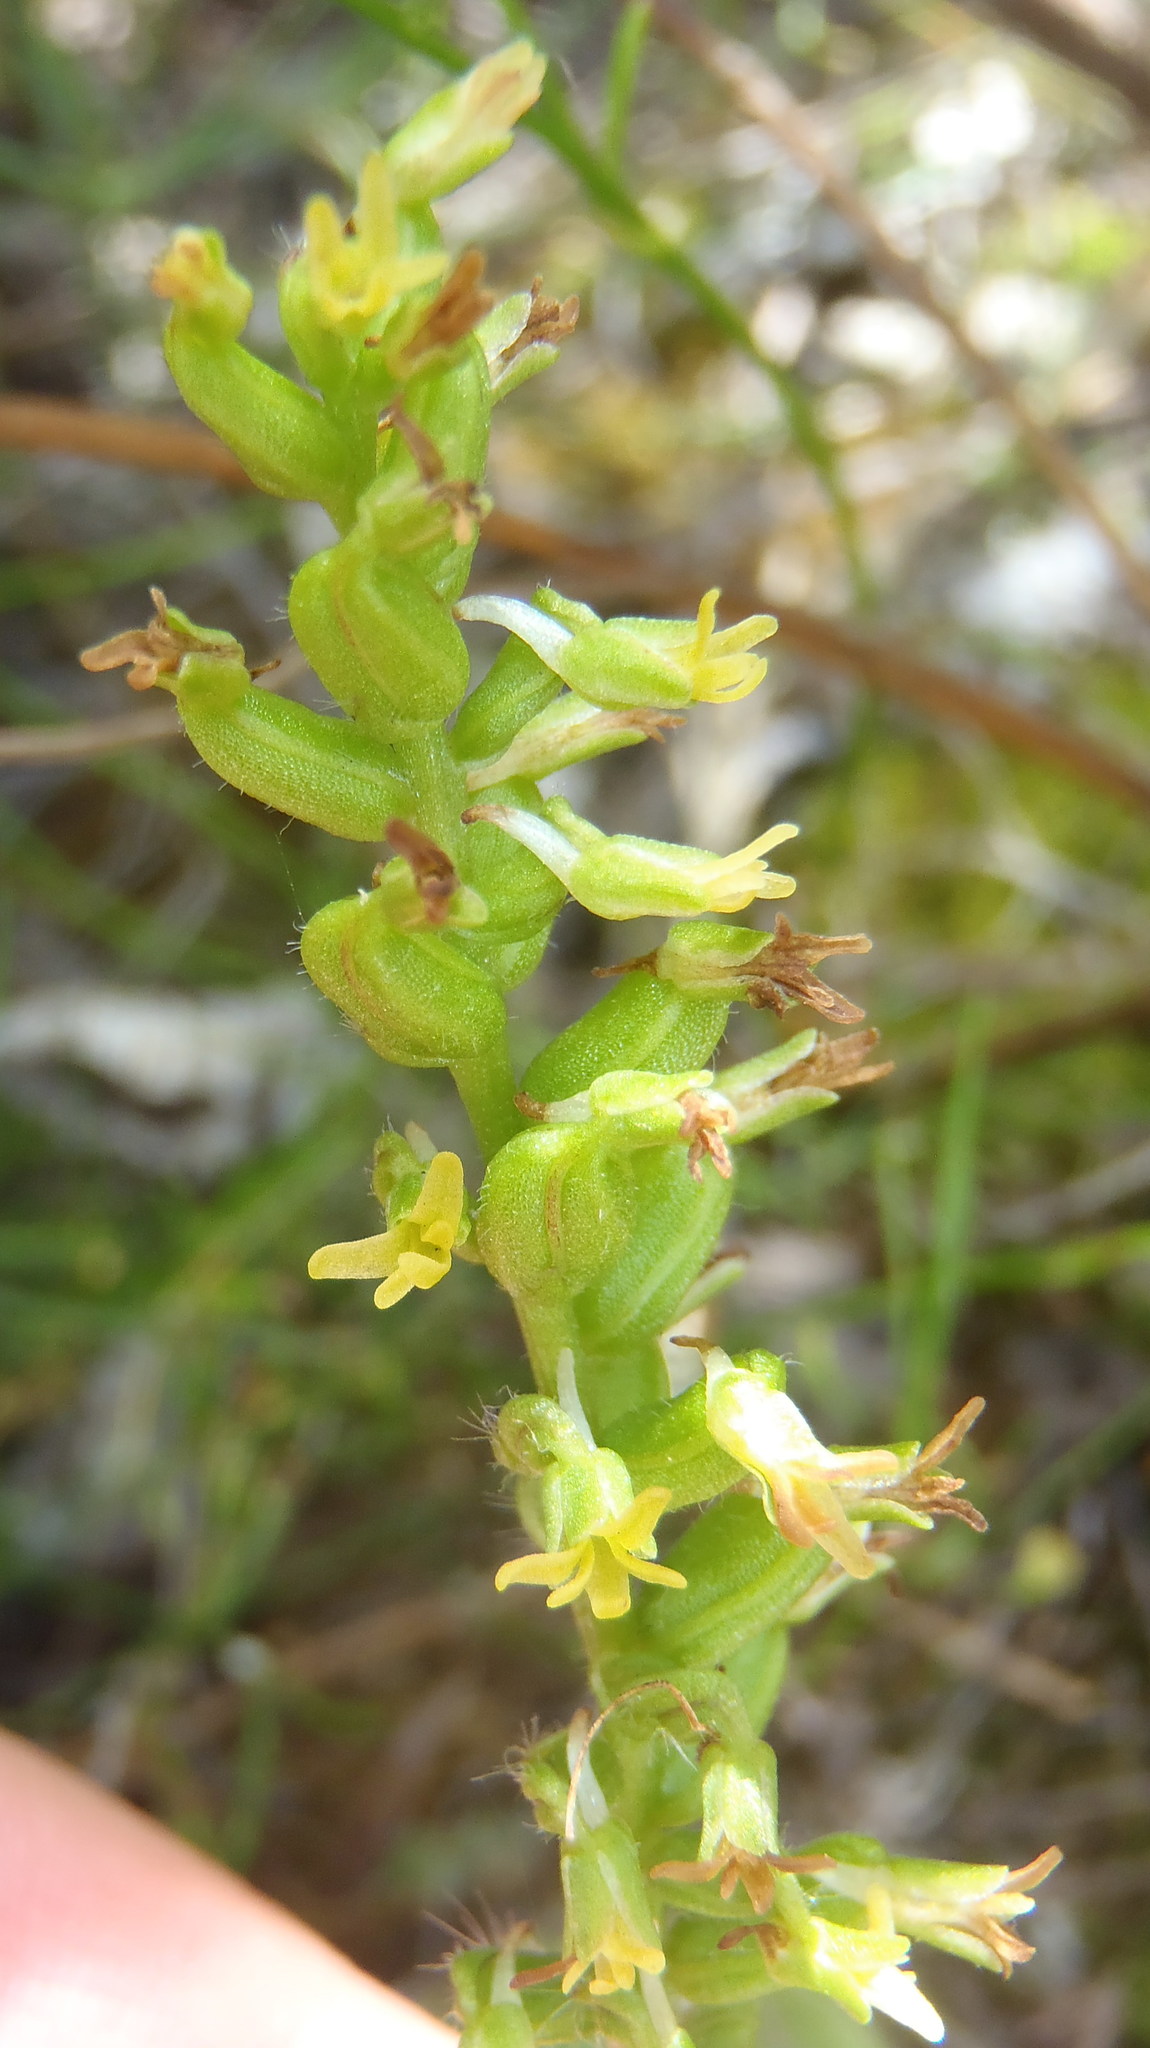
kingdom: Plantae
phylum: Tracheophyta
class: Liliopsida
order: Asparagales
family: Orchidaceae
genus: Holothrix
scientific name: Holothrix villosa
